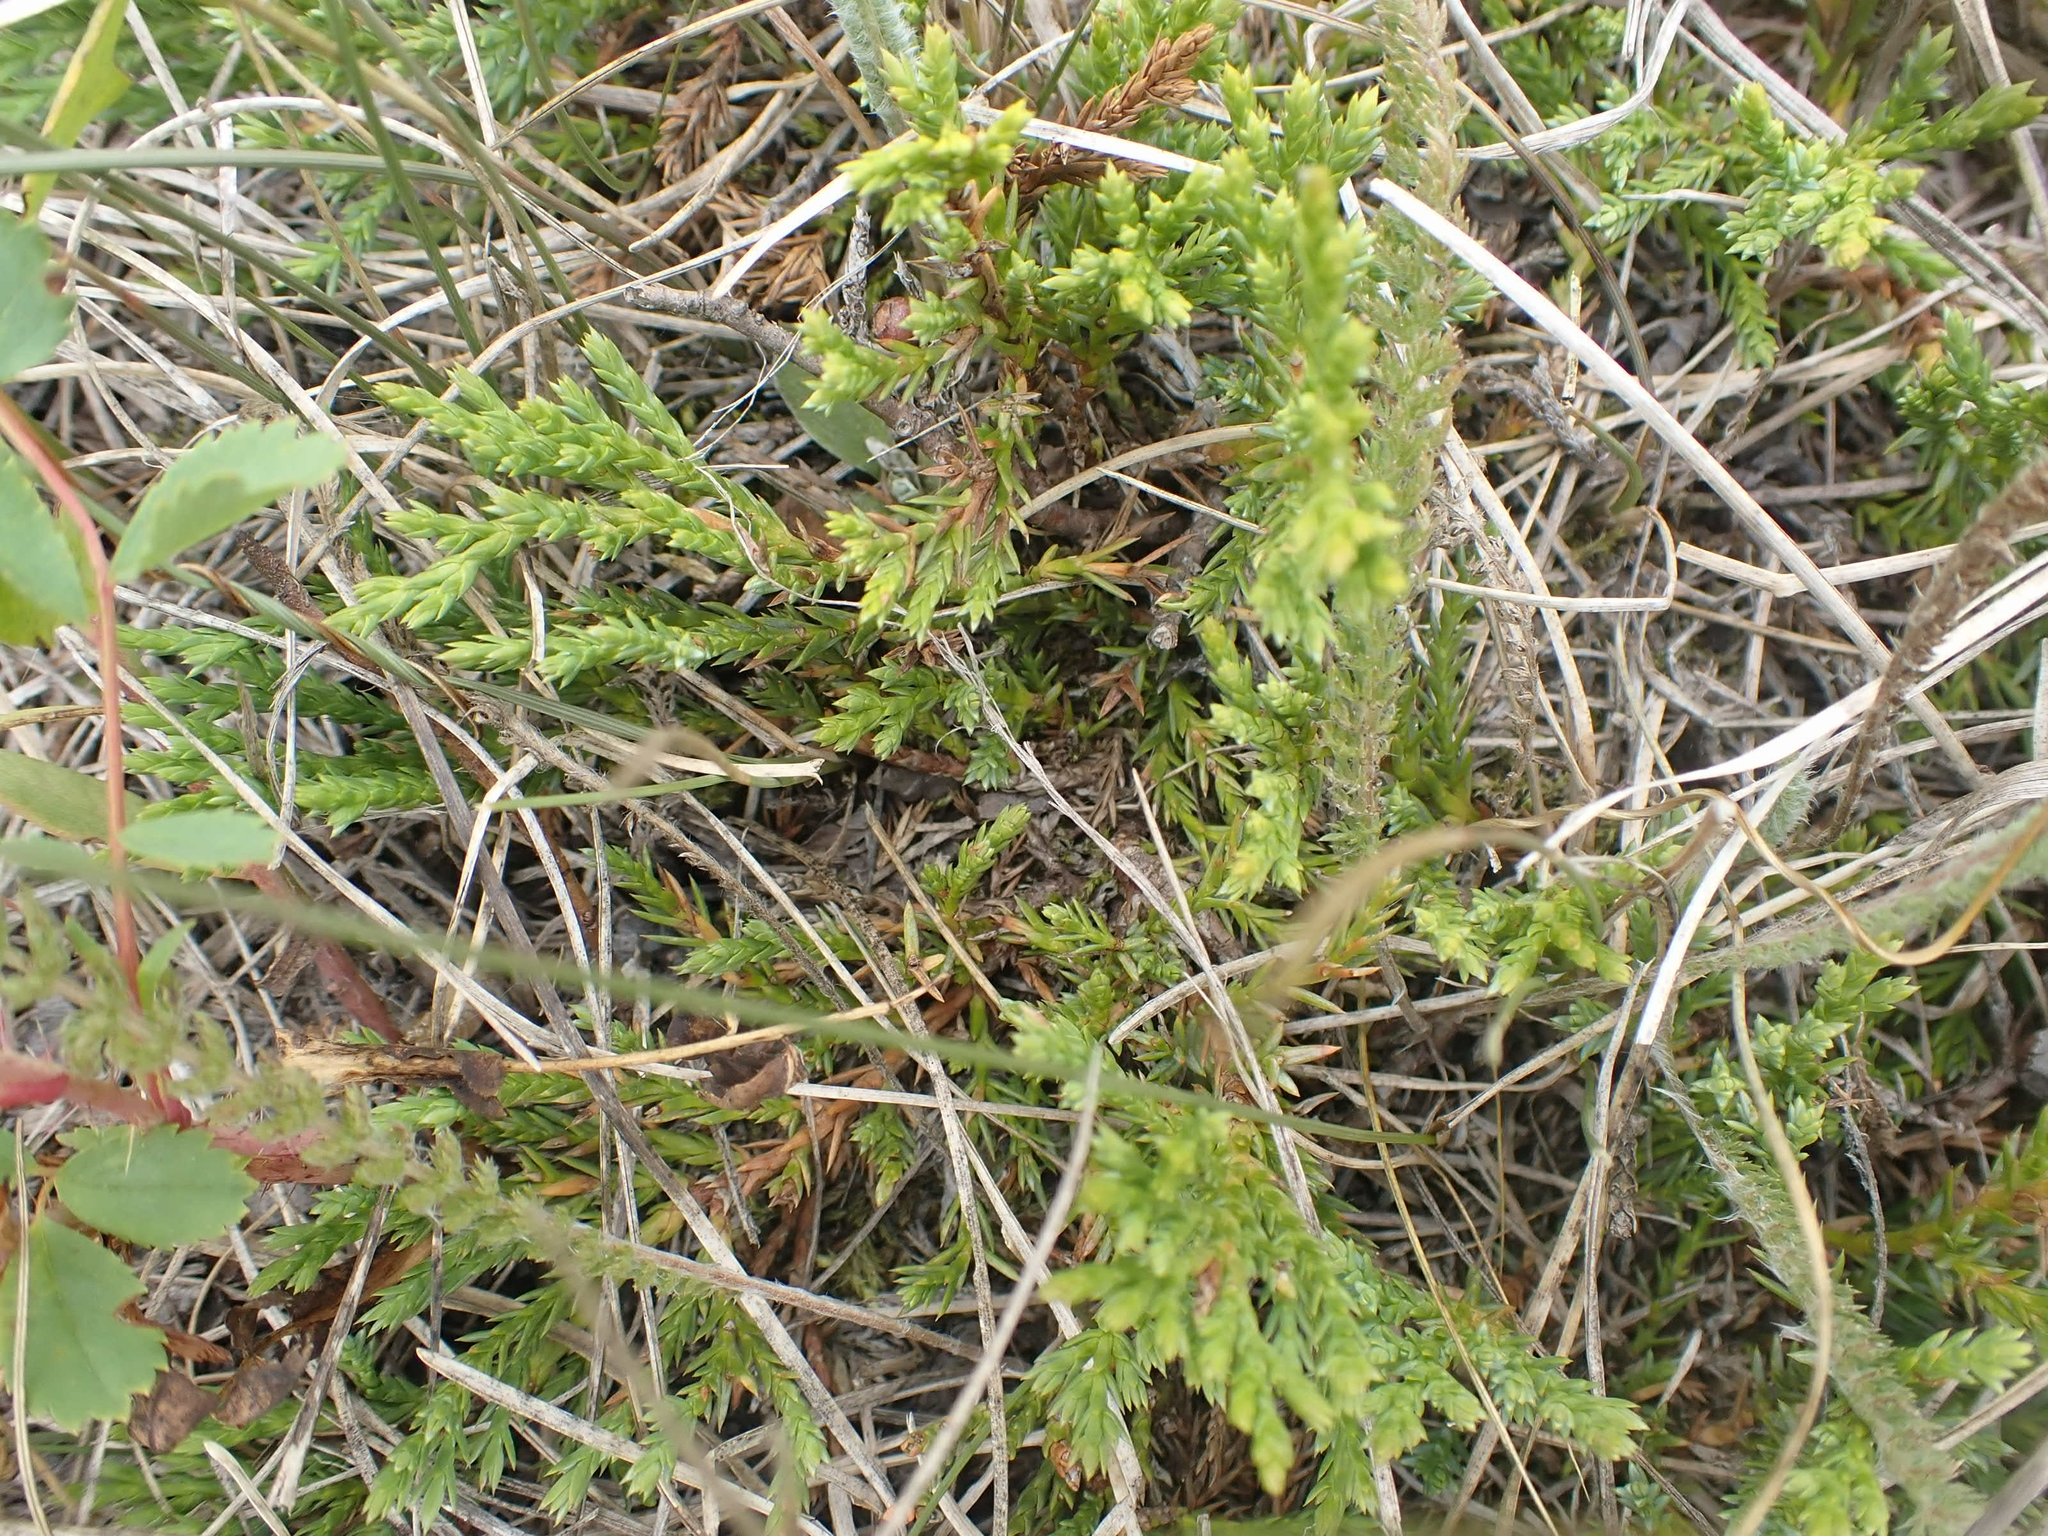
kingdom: Plantae
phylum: Tracheophyta
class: Pinopsida
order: Pinales
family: Cupressaceae
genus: Juniperus
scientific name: Juniperus horizontalis
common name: Creeping juniper
